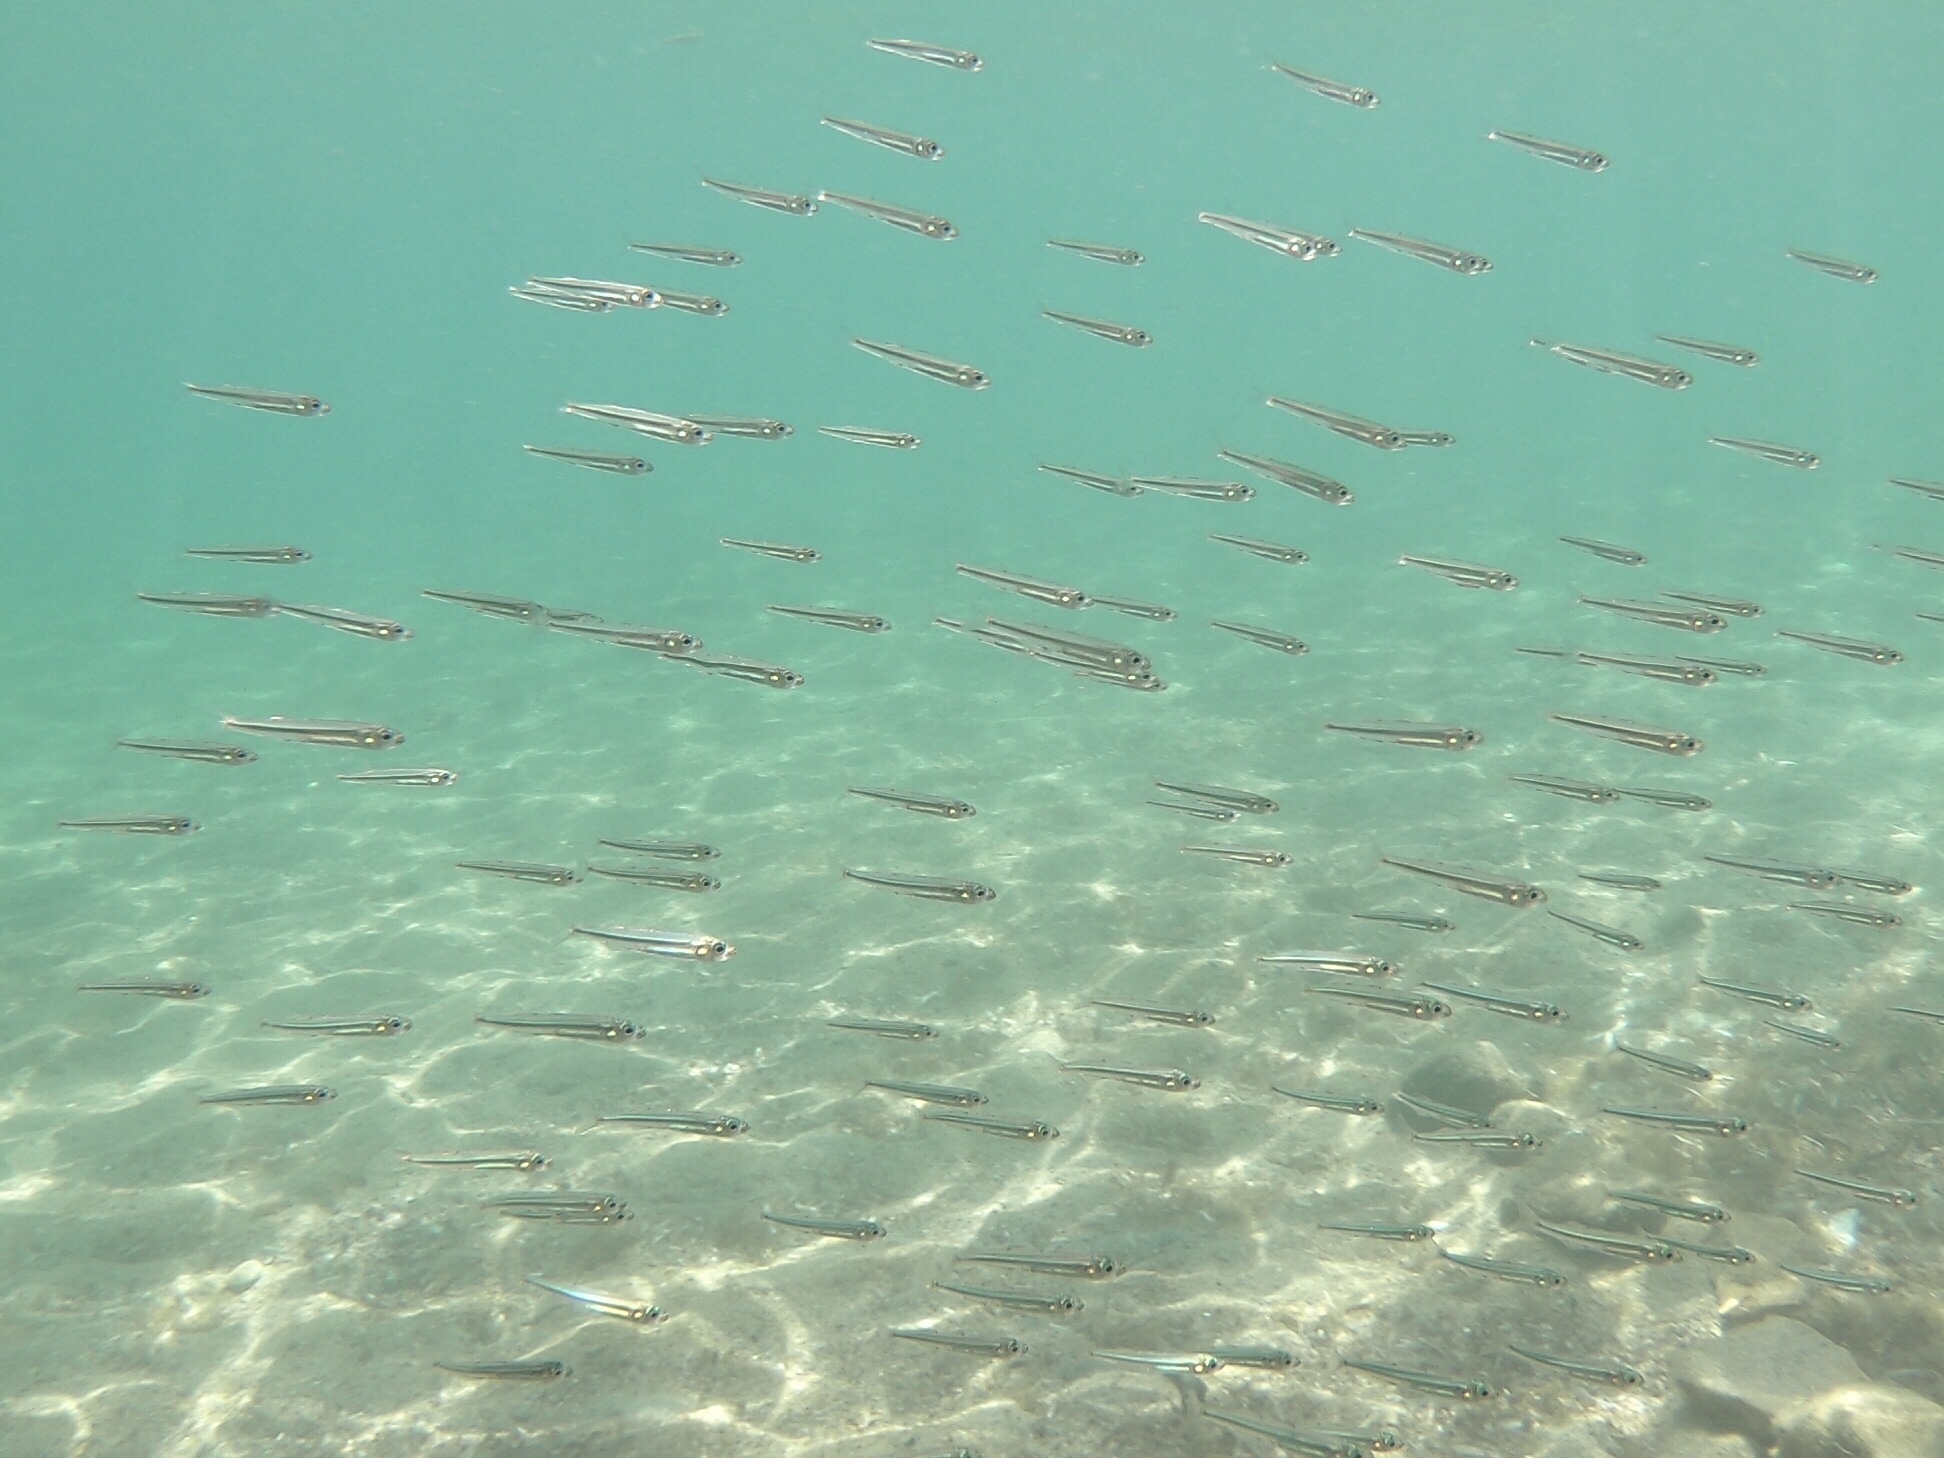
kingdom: Animalia
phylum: Chordata
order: Atheriniformes
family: Atherinidae
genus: Atherina
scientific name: Atherina
